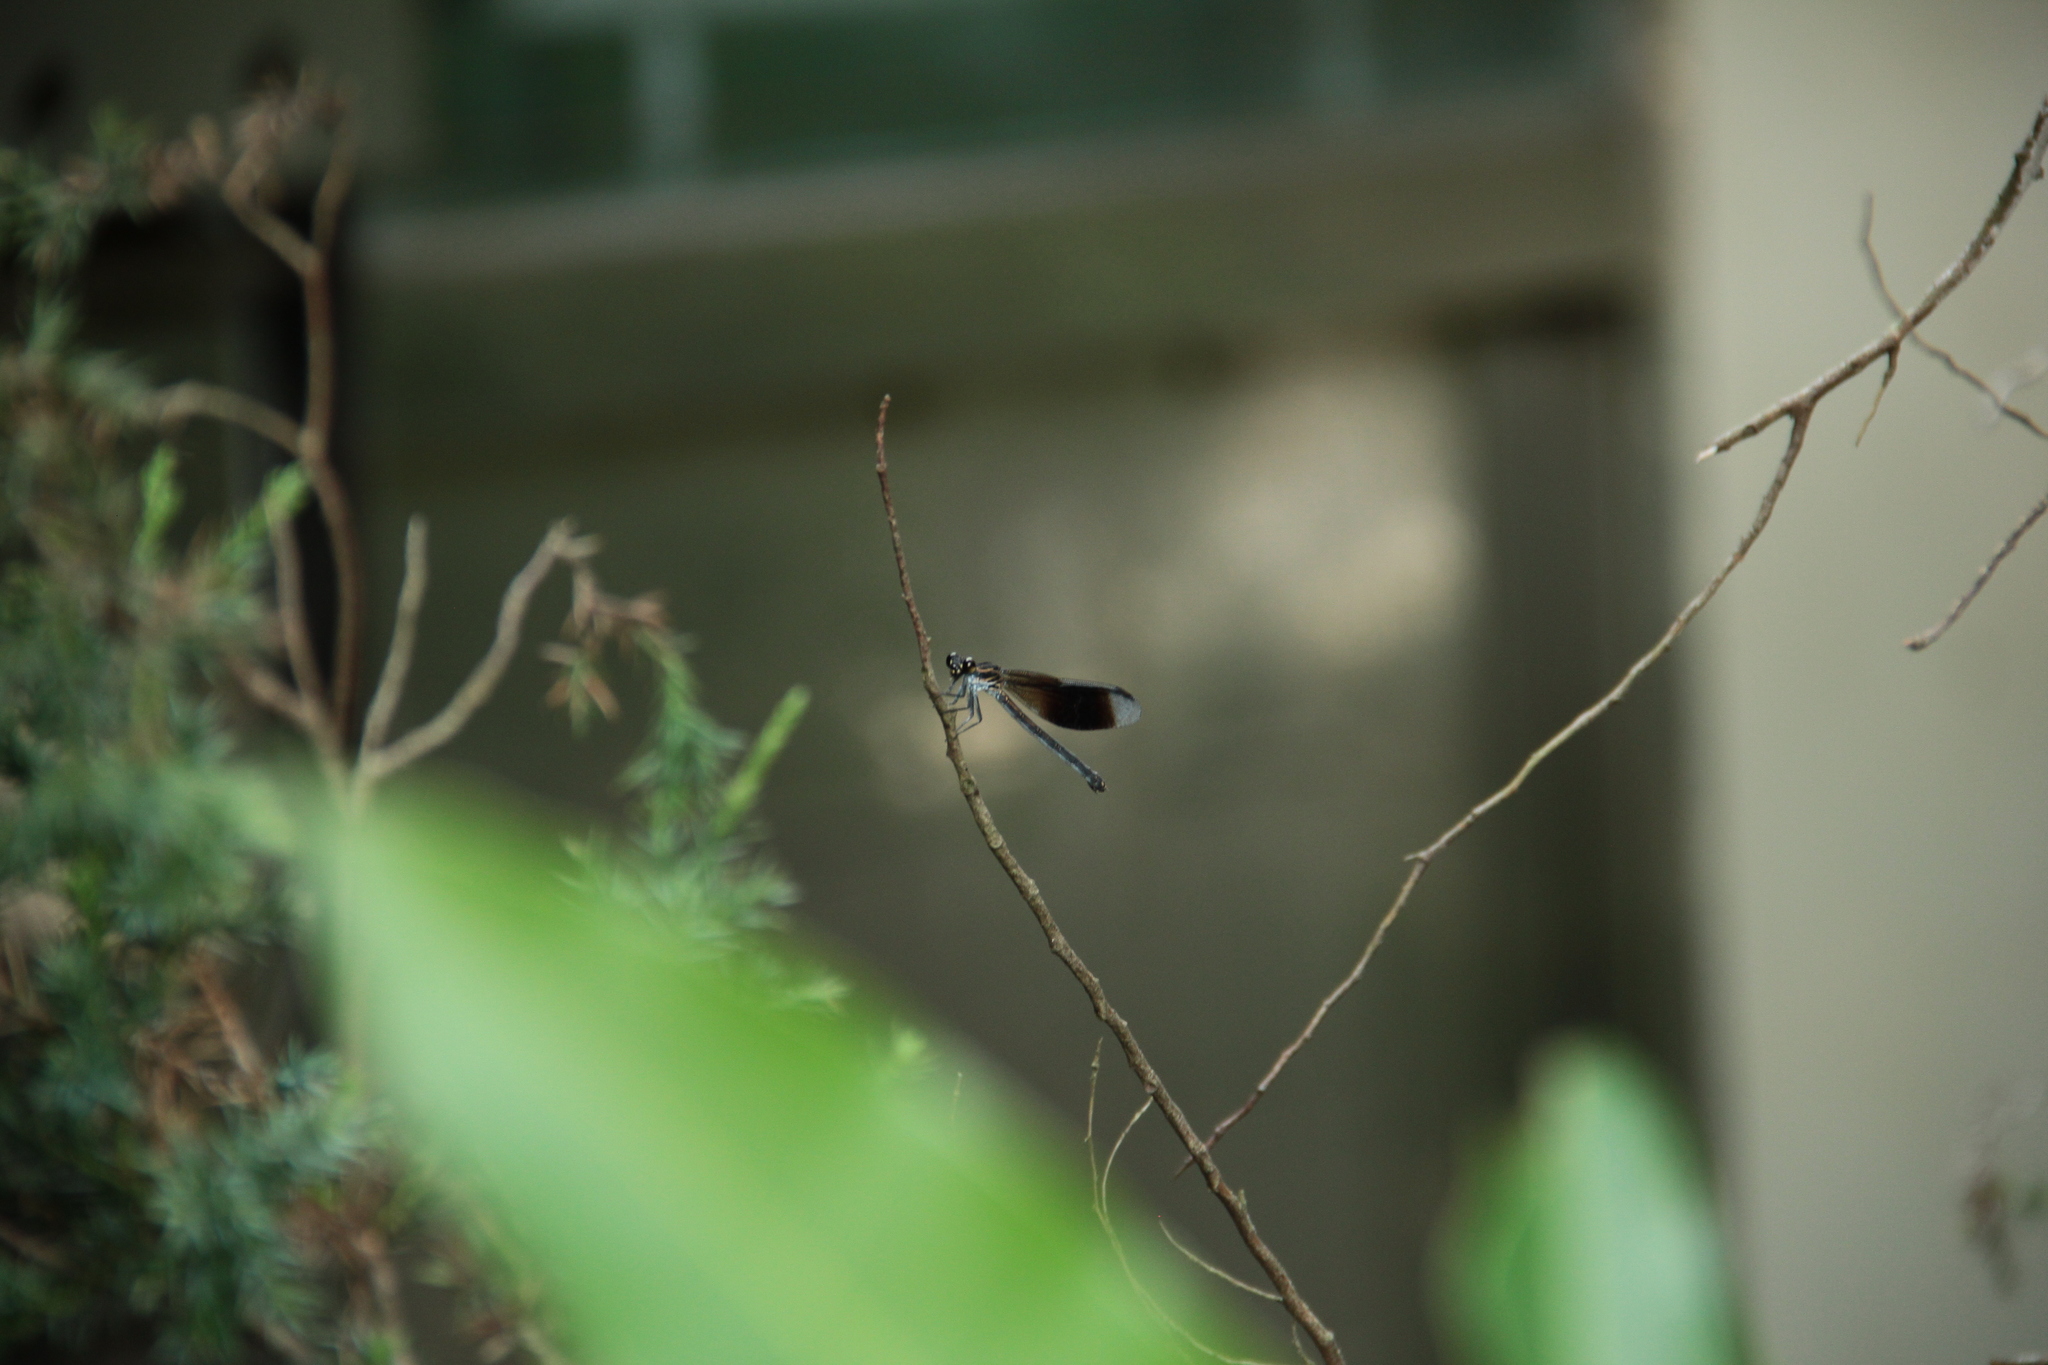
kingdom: Animalia
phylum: Arthropoda
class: Insecta
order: Odonata
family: Euphaeidae
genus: Euphaea
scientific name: Euphaea formosa
